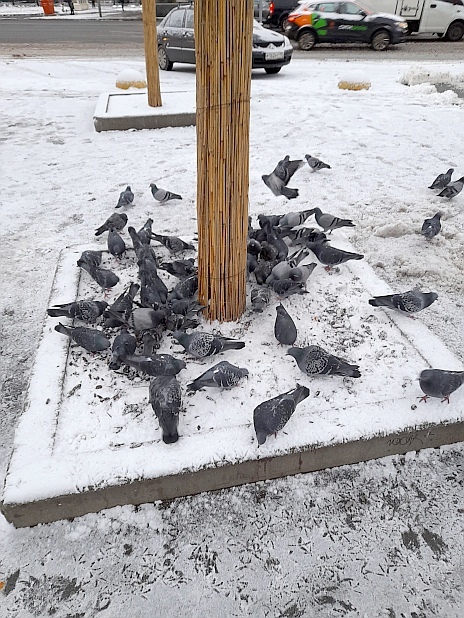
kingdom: Animalia
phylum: Chordata
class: Aves
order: Columbiformes
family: Columbidae
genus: Columba
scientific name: Columba livia
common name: Rock pigeon
